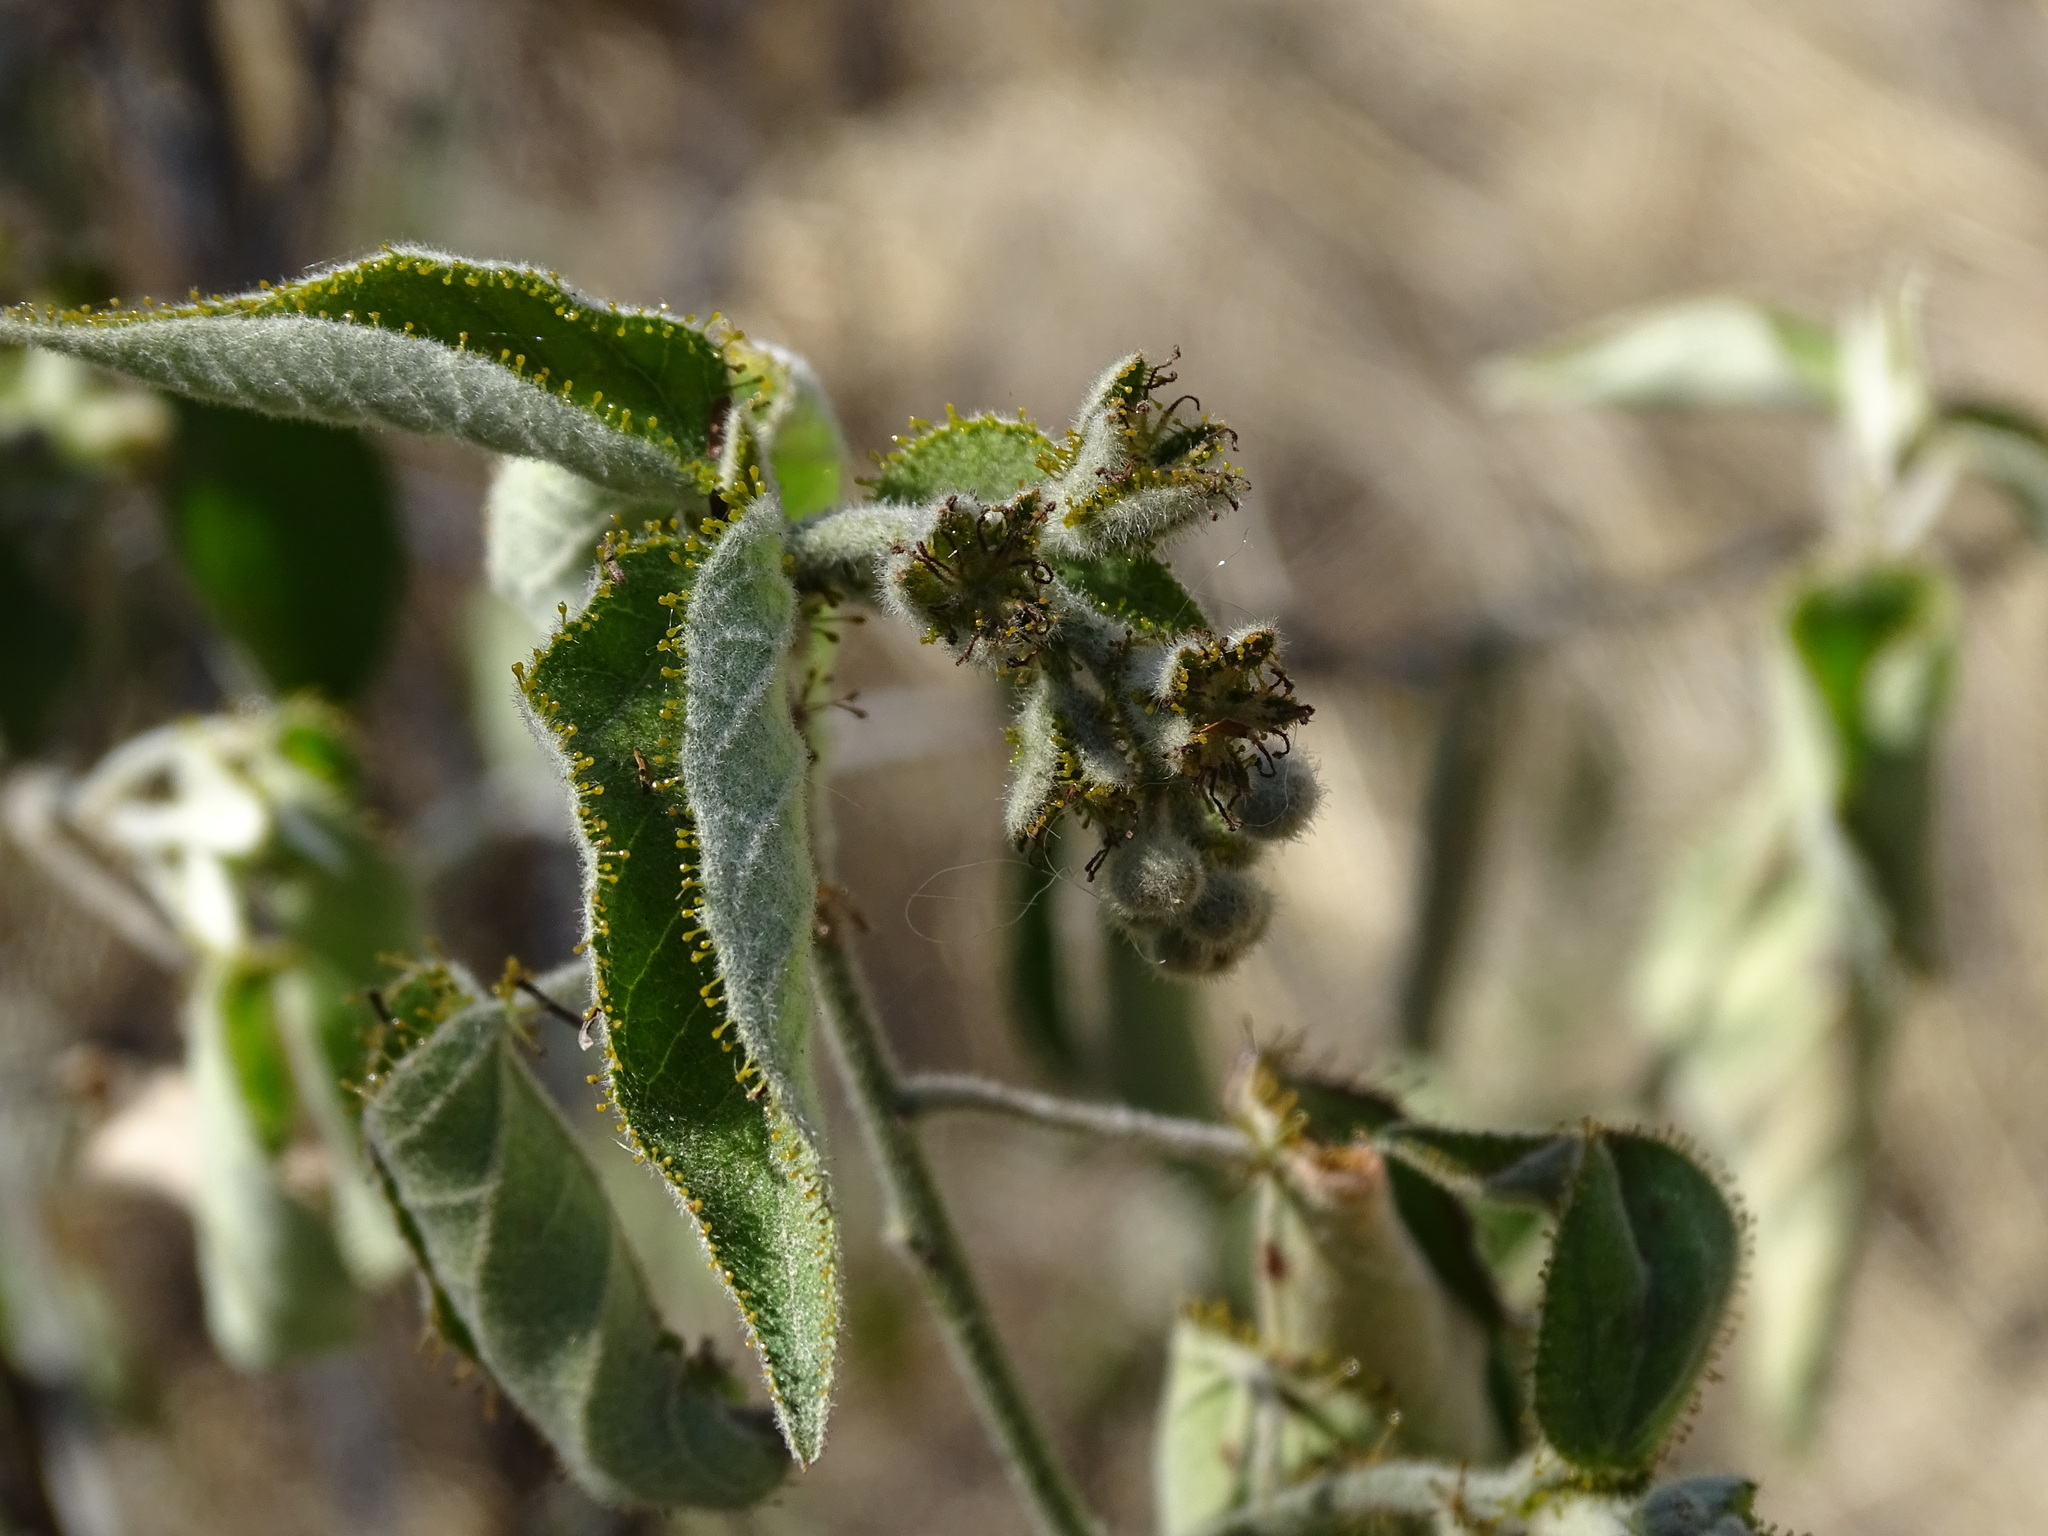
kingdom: Plantae
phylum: Tracheophyta
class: Magnoliopsida
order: Malpighiales
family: Euphorbiaceae
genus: Croton
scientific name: Croton ciliatoglandulifer
